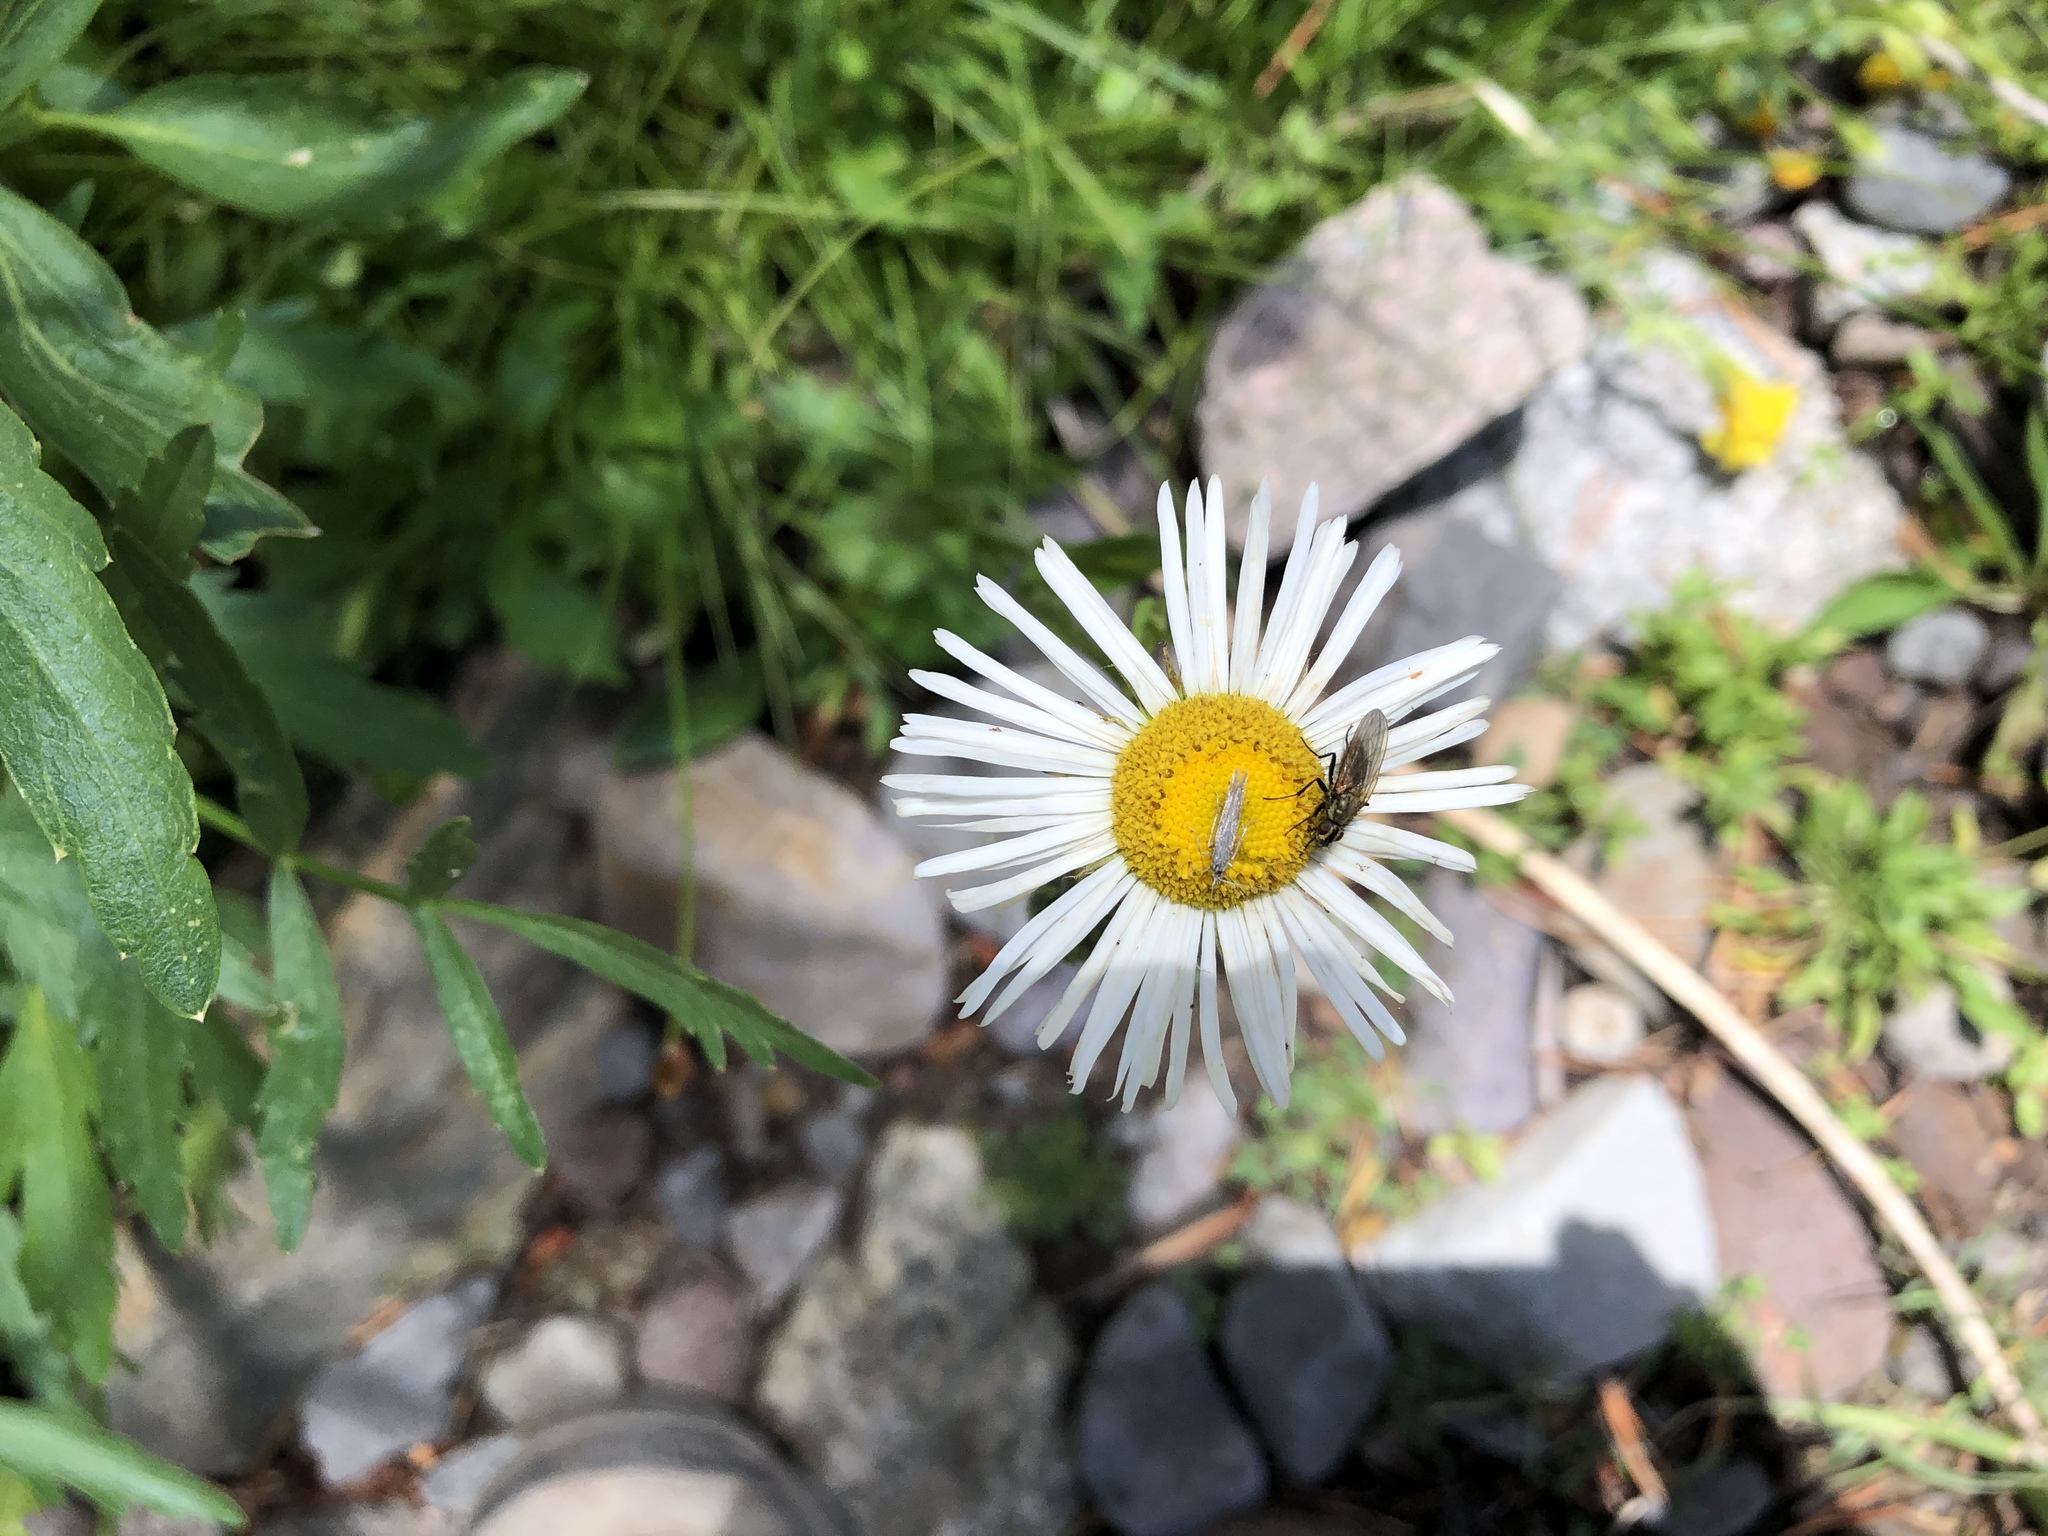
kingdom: Plantae
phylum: Tracheophyta
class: Magnoliopsida
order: Asterales
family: Asteraceae
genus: Erigeron
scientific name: Erigeron coulteri
